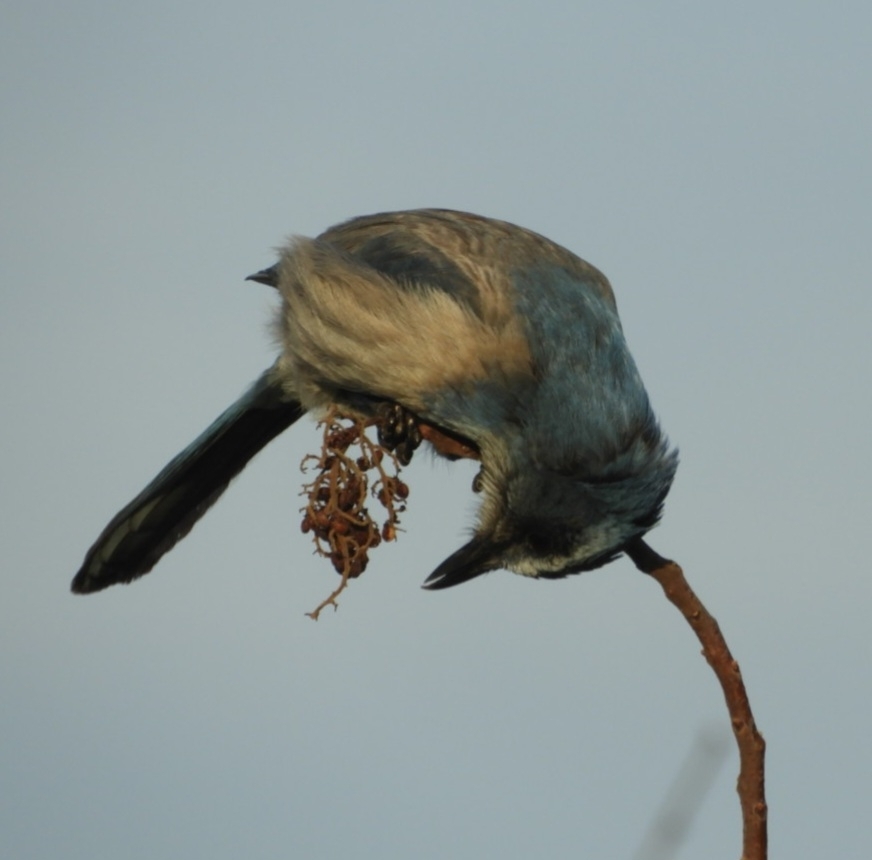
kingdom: Animalia
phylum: Chordata
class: Aves
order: Passeriformes
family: Corvidae
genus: Aphelocoma
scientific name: Aphelocoma coerulescens
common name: Florida scrub jay
